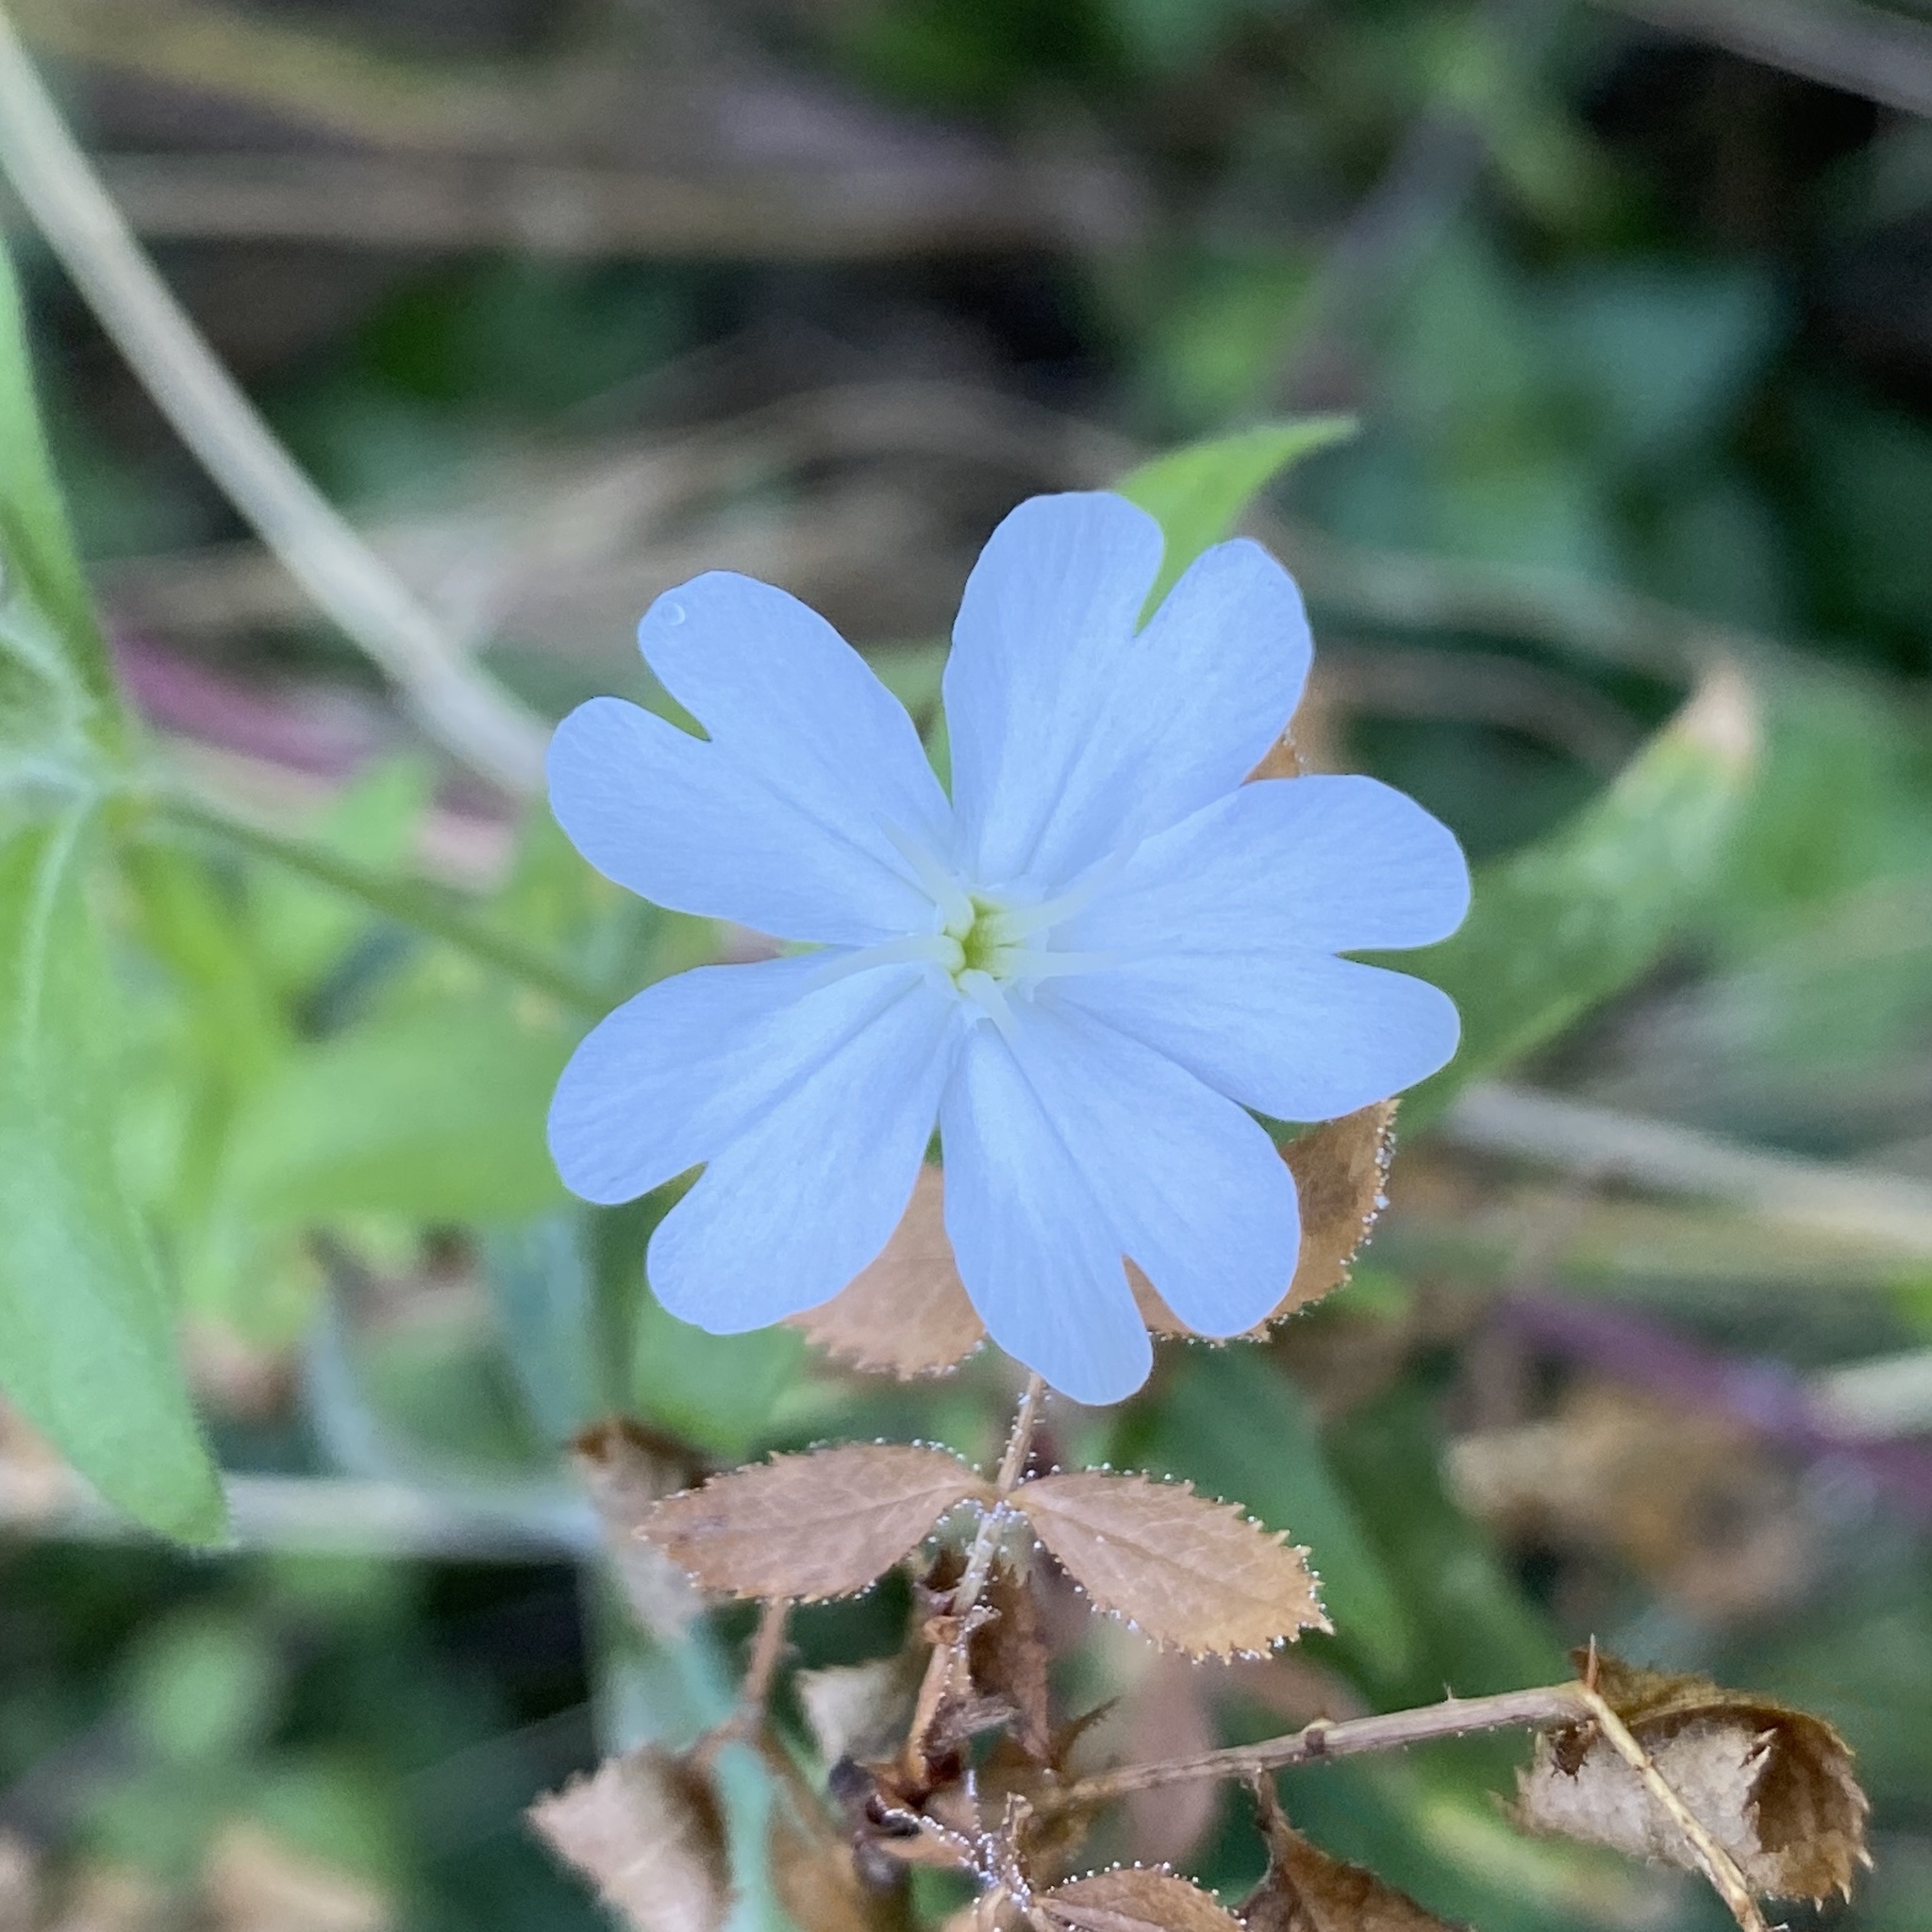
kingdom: Plantae
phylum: Tracheophyta
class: Magnoliopsida
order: Caryophyllales
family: Caryophyllaceae
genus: Silene
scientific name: Silene latifolia
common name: White campion
